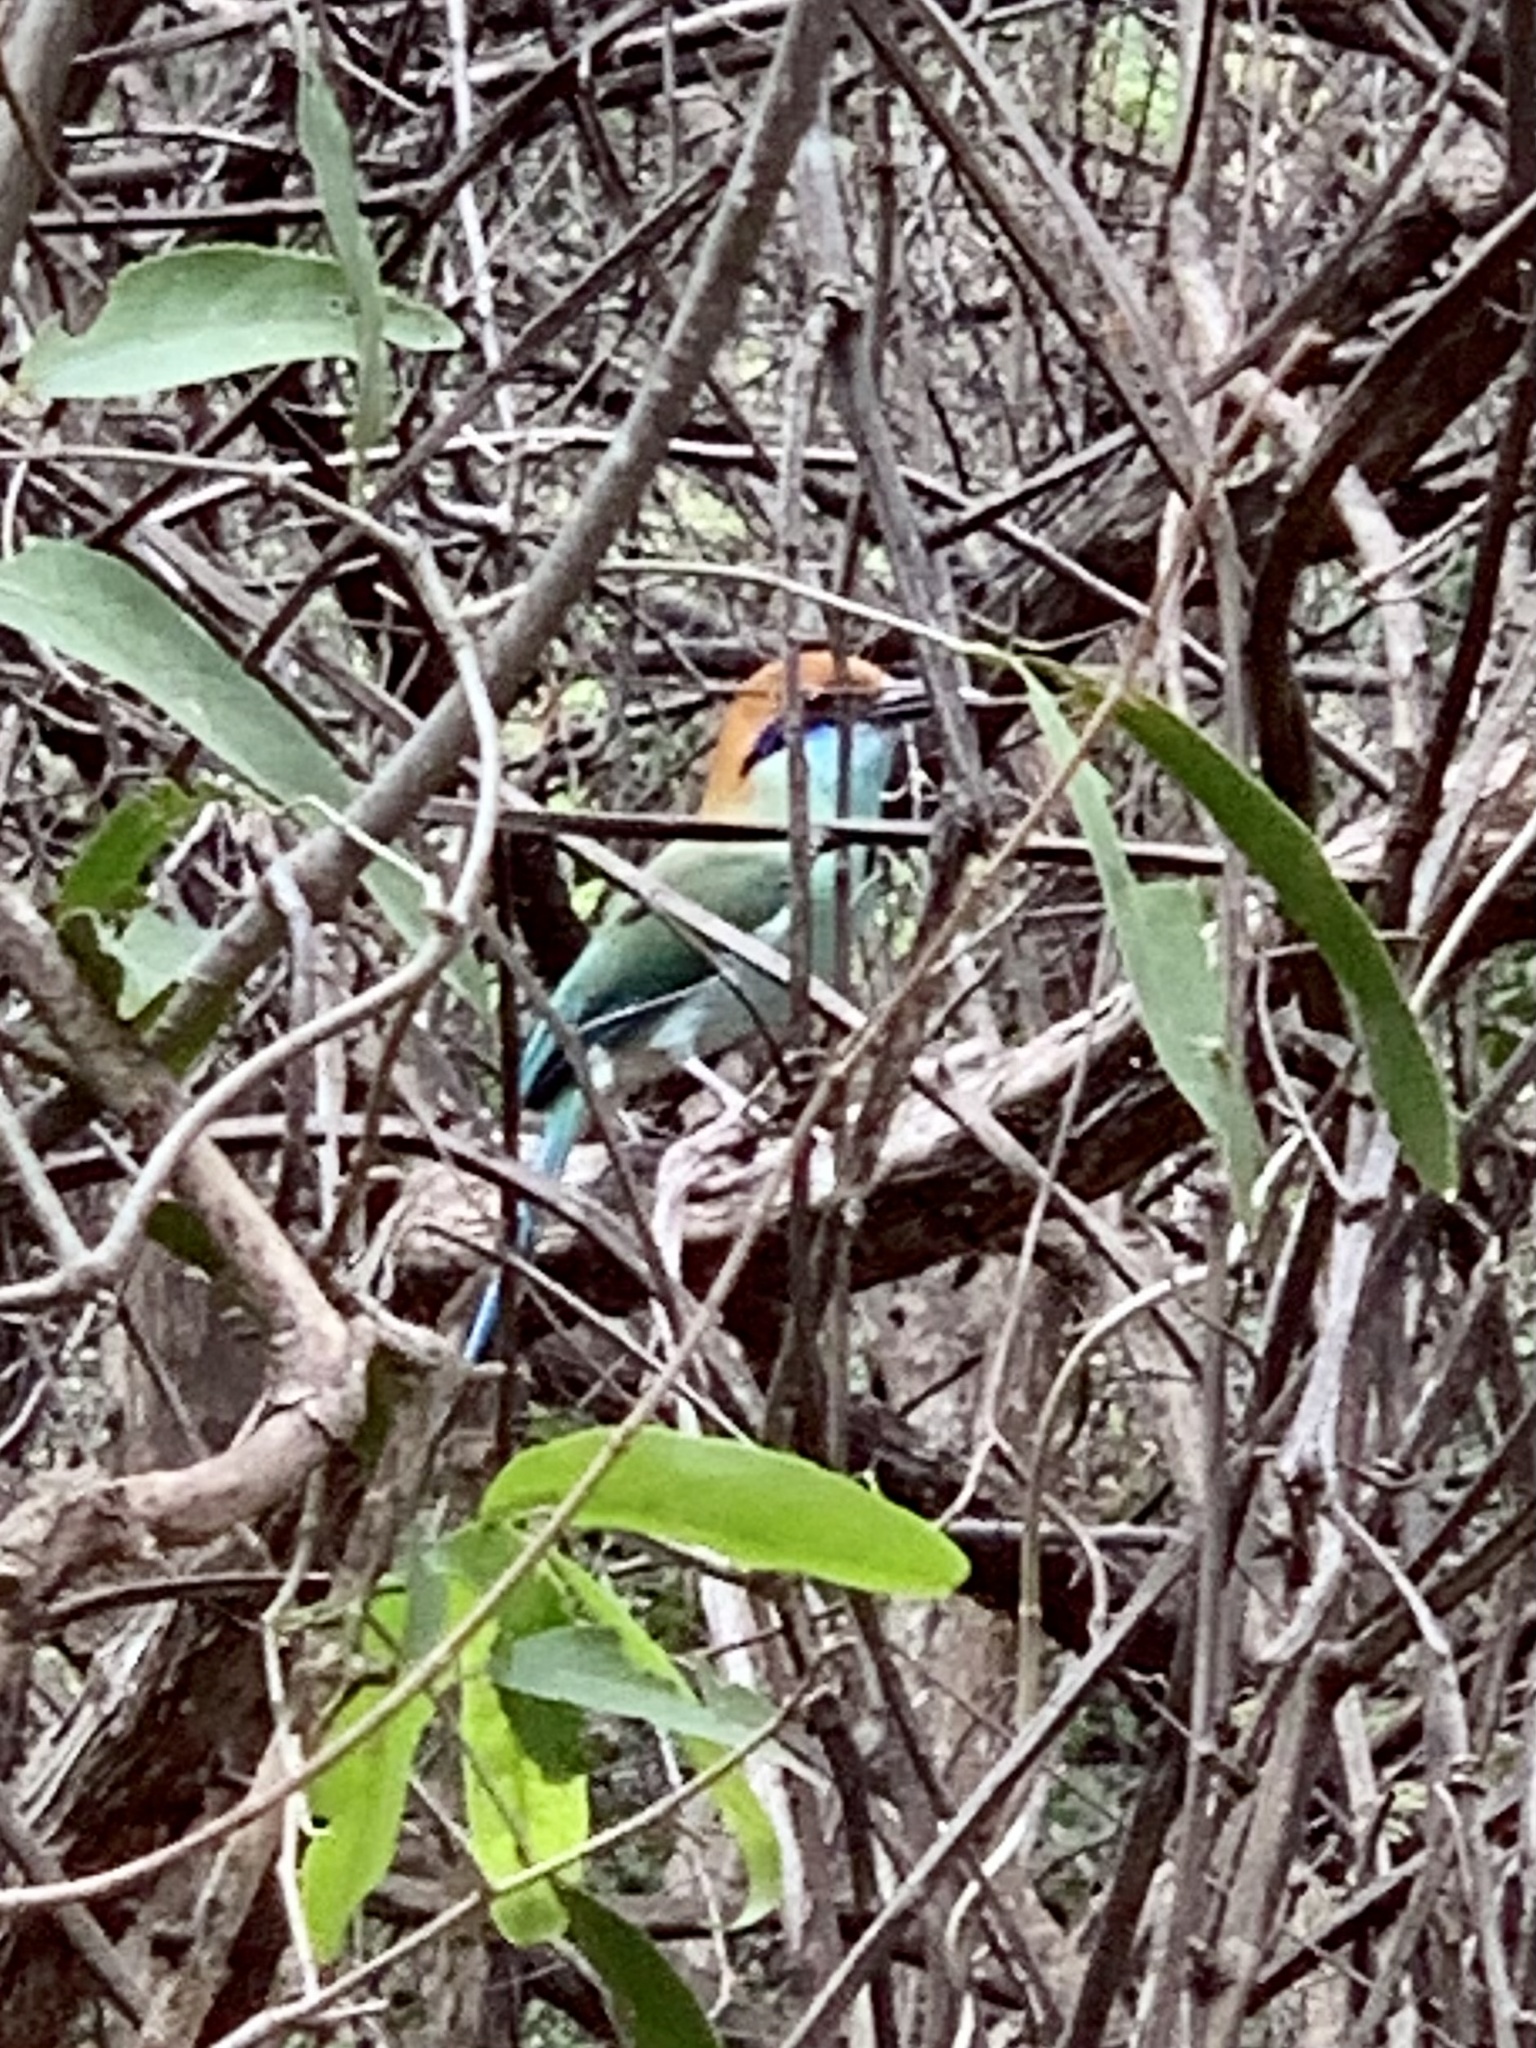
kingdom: Animalia
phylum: Chordata
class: Aves
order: Coraciiformes
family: Momotidae
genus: Momotus
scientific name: Momotus mexicanus
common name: Russet-crowned motmot
